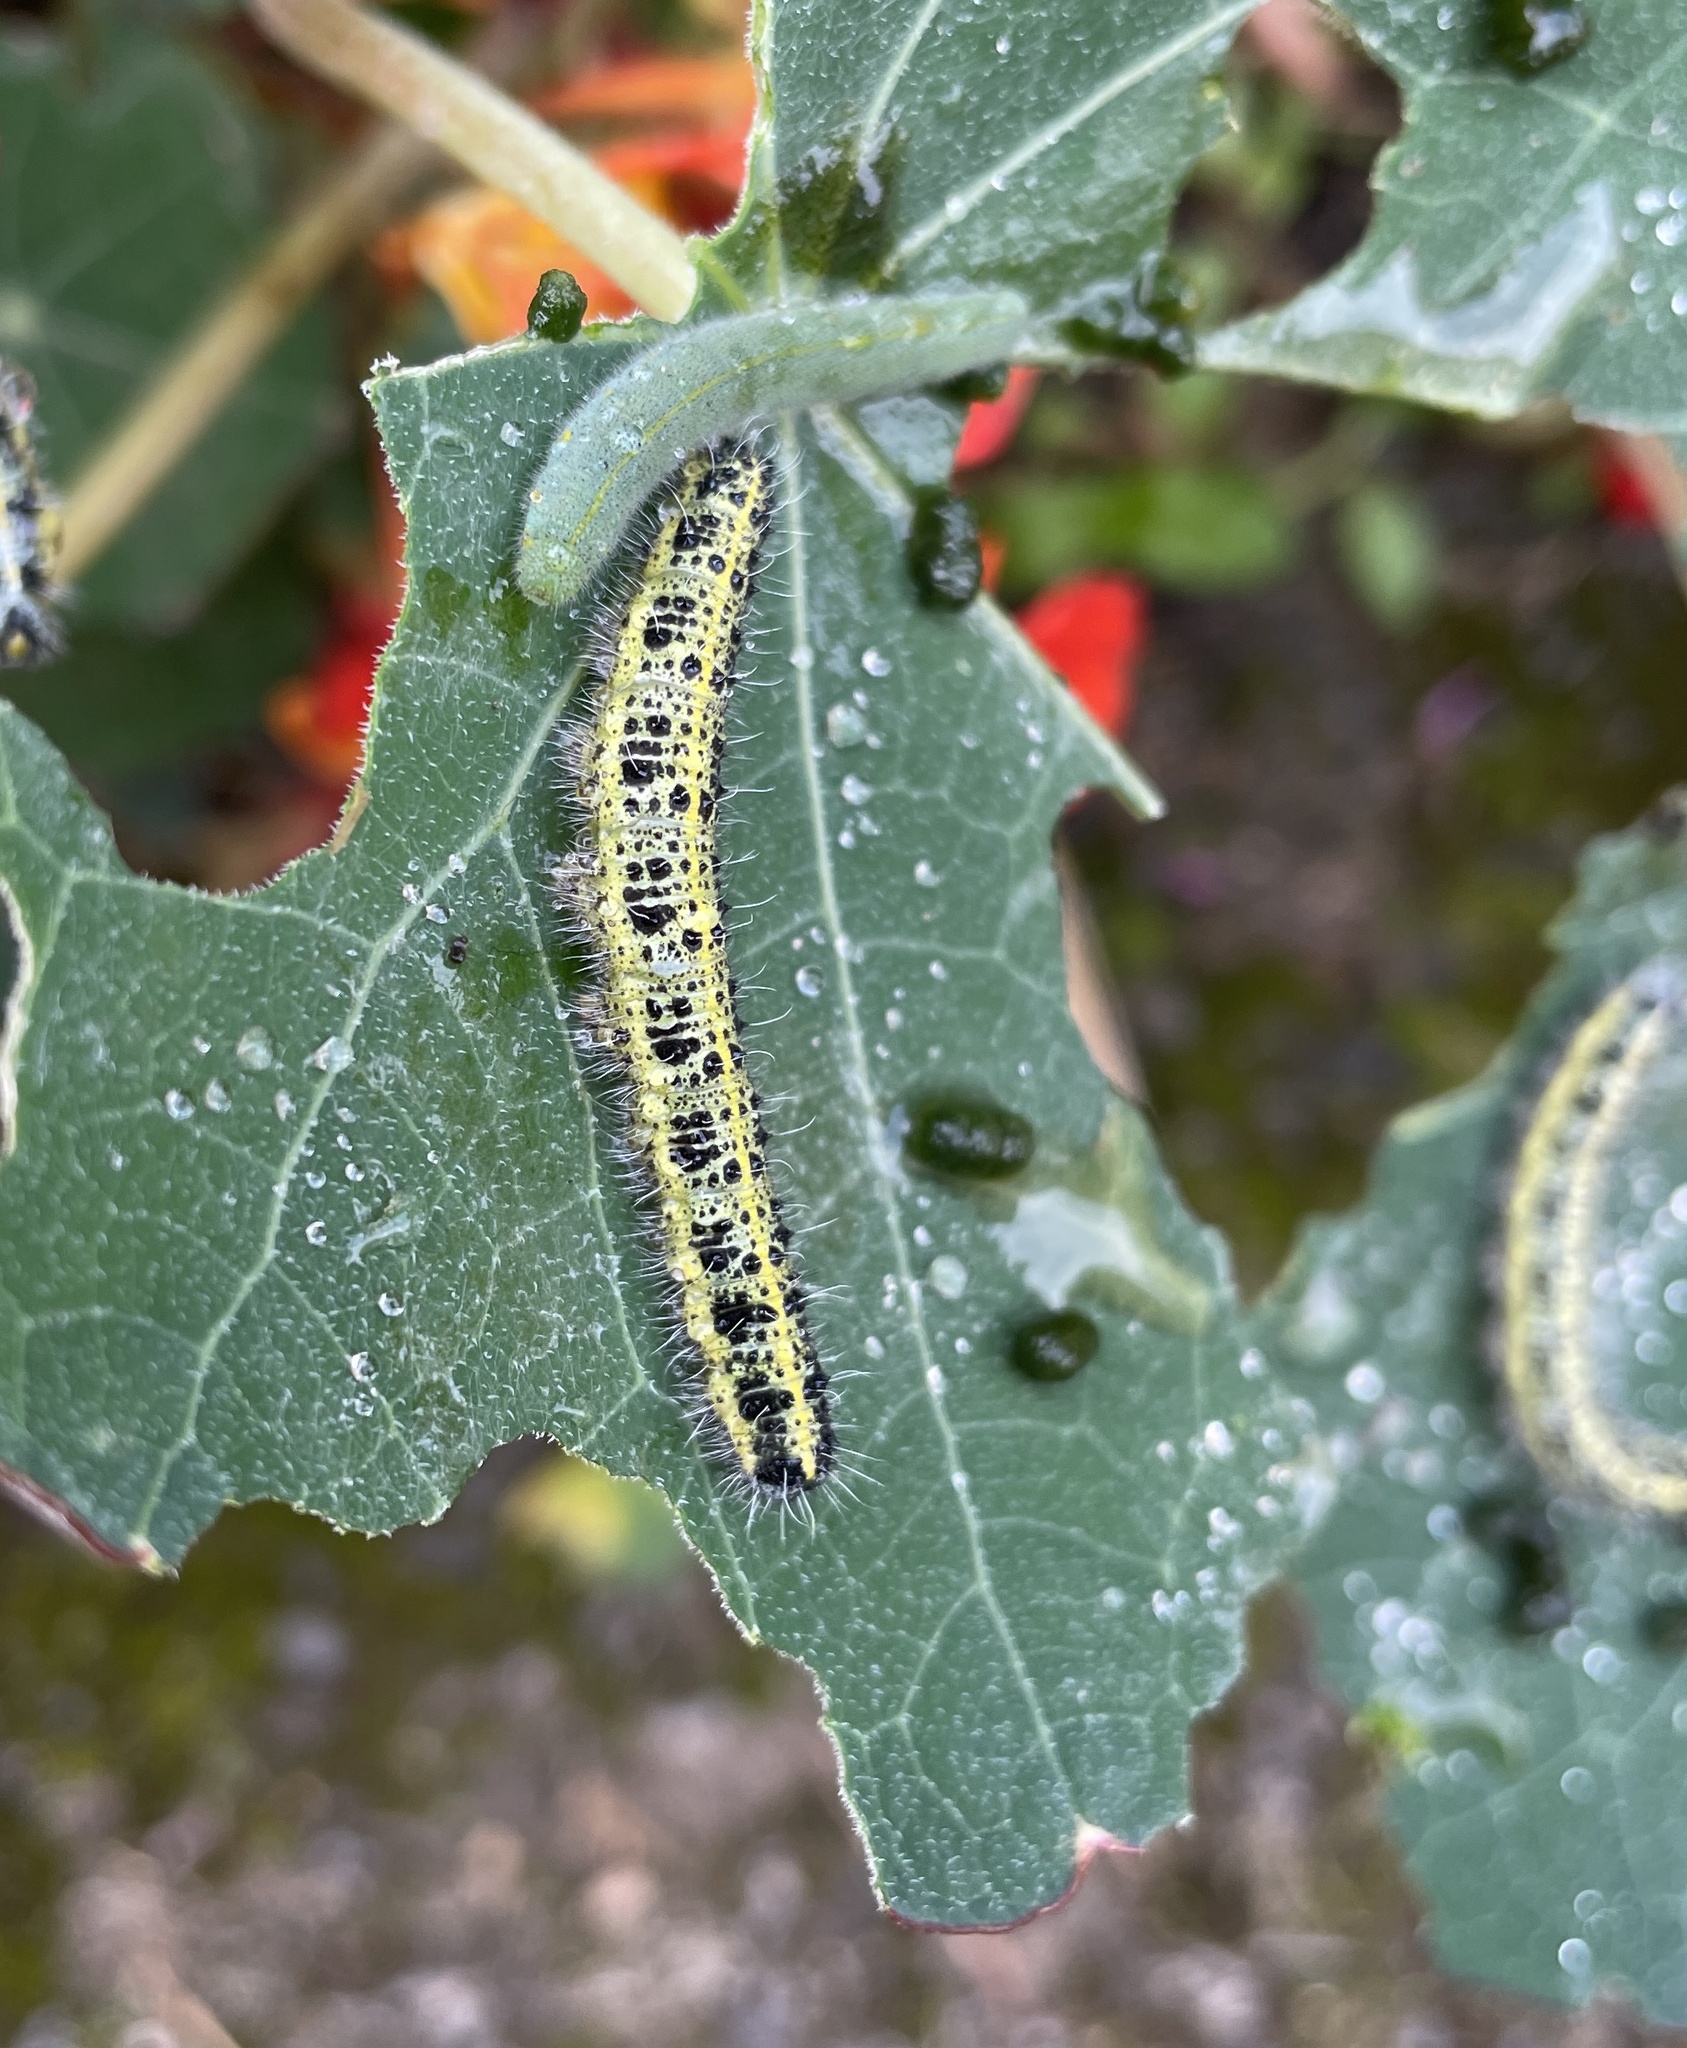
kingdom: Animalia
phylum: Arthropoda
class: Insecta
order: Lepidoptera
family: Pieridae
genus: Pieris
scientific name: Pieris brassicae
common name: Large white
